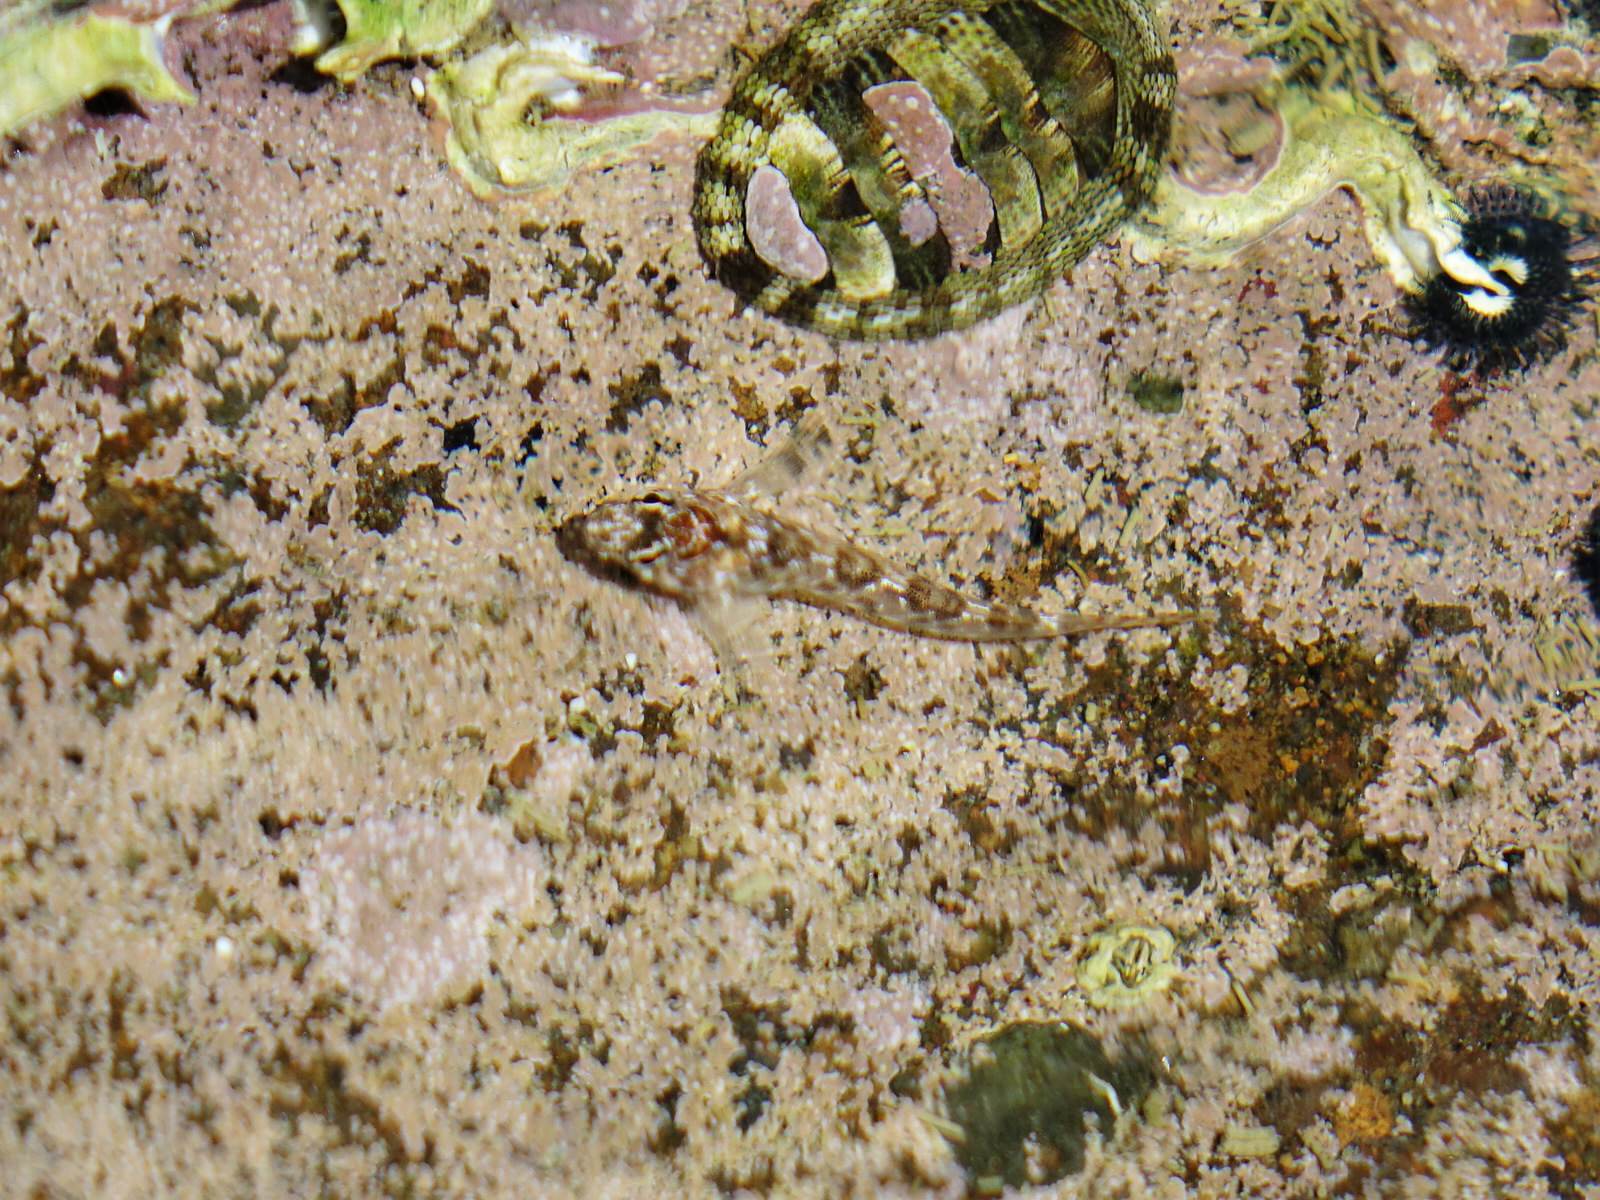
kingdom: Animalia
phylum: Chordata
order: Perciformes
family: Tripterygiidae
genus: Bellapiscis
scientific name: Bellapiscis medius
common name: Twister
